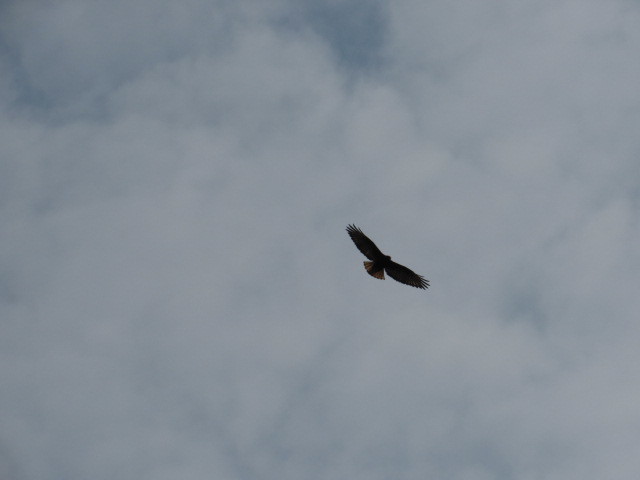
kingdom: Animalia
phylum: Chordata
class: Aves
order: Accipitriformes
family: Accipitridae
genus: Buteo
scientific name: Buteo jamaicensis
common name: Red-tailed hawk
